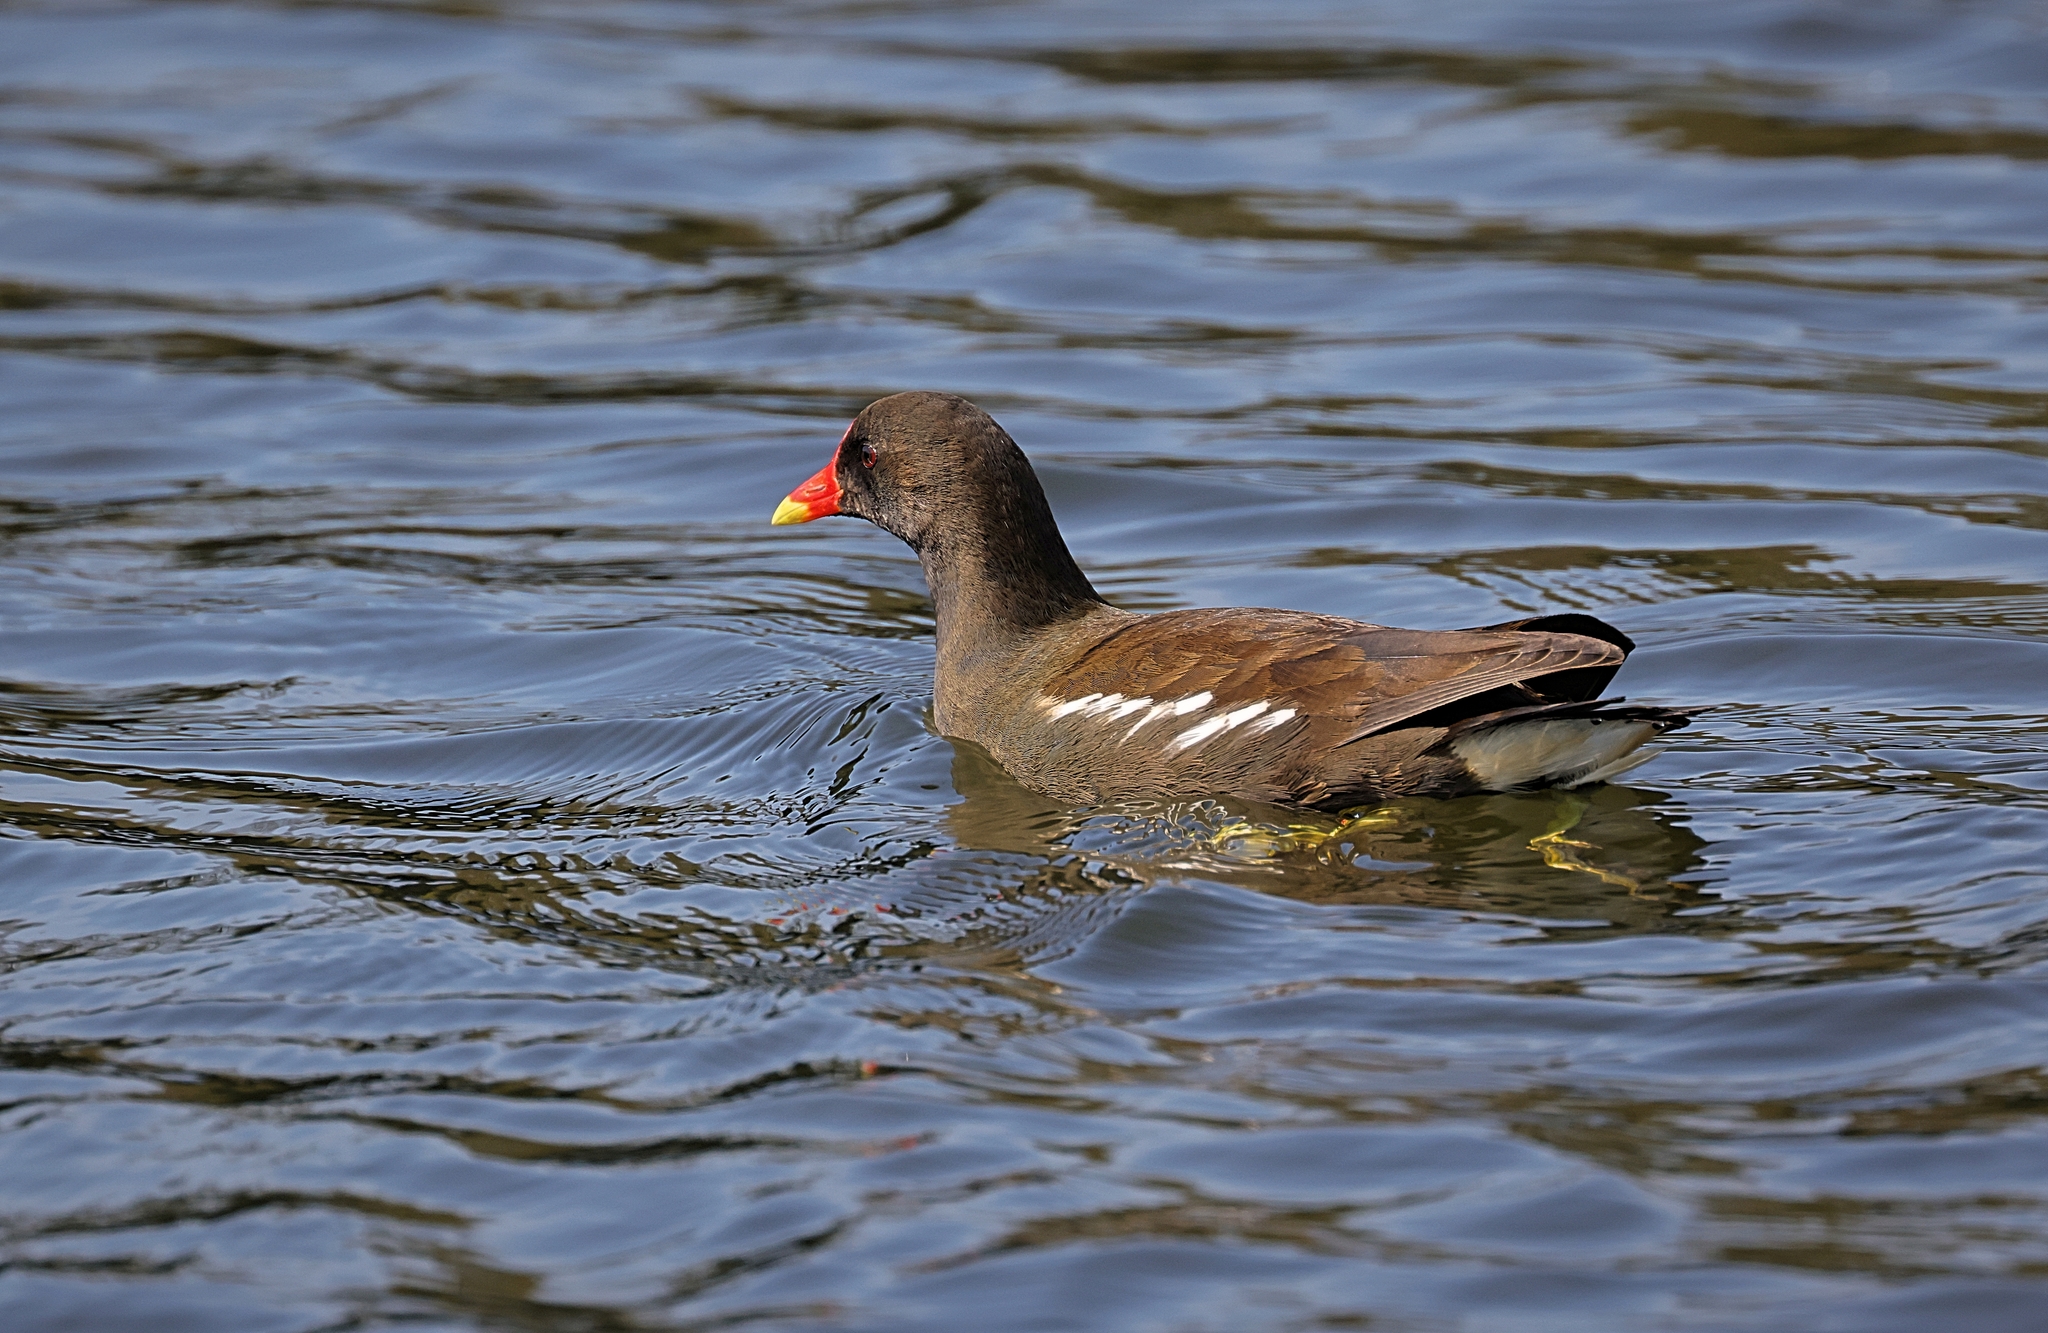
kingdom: Animalia
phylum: Chordata
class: Aves
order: Gruiformes
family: Rallidae
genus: Gallinula
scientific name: Gallinula chloropus
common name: Common moorhen
